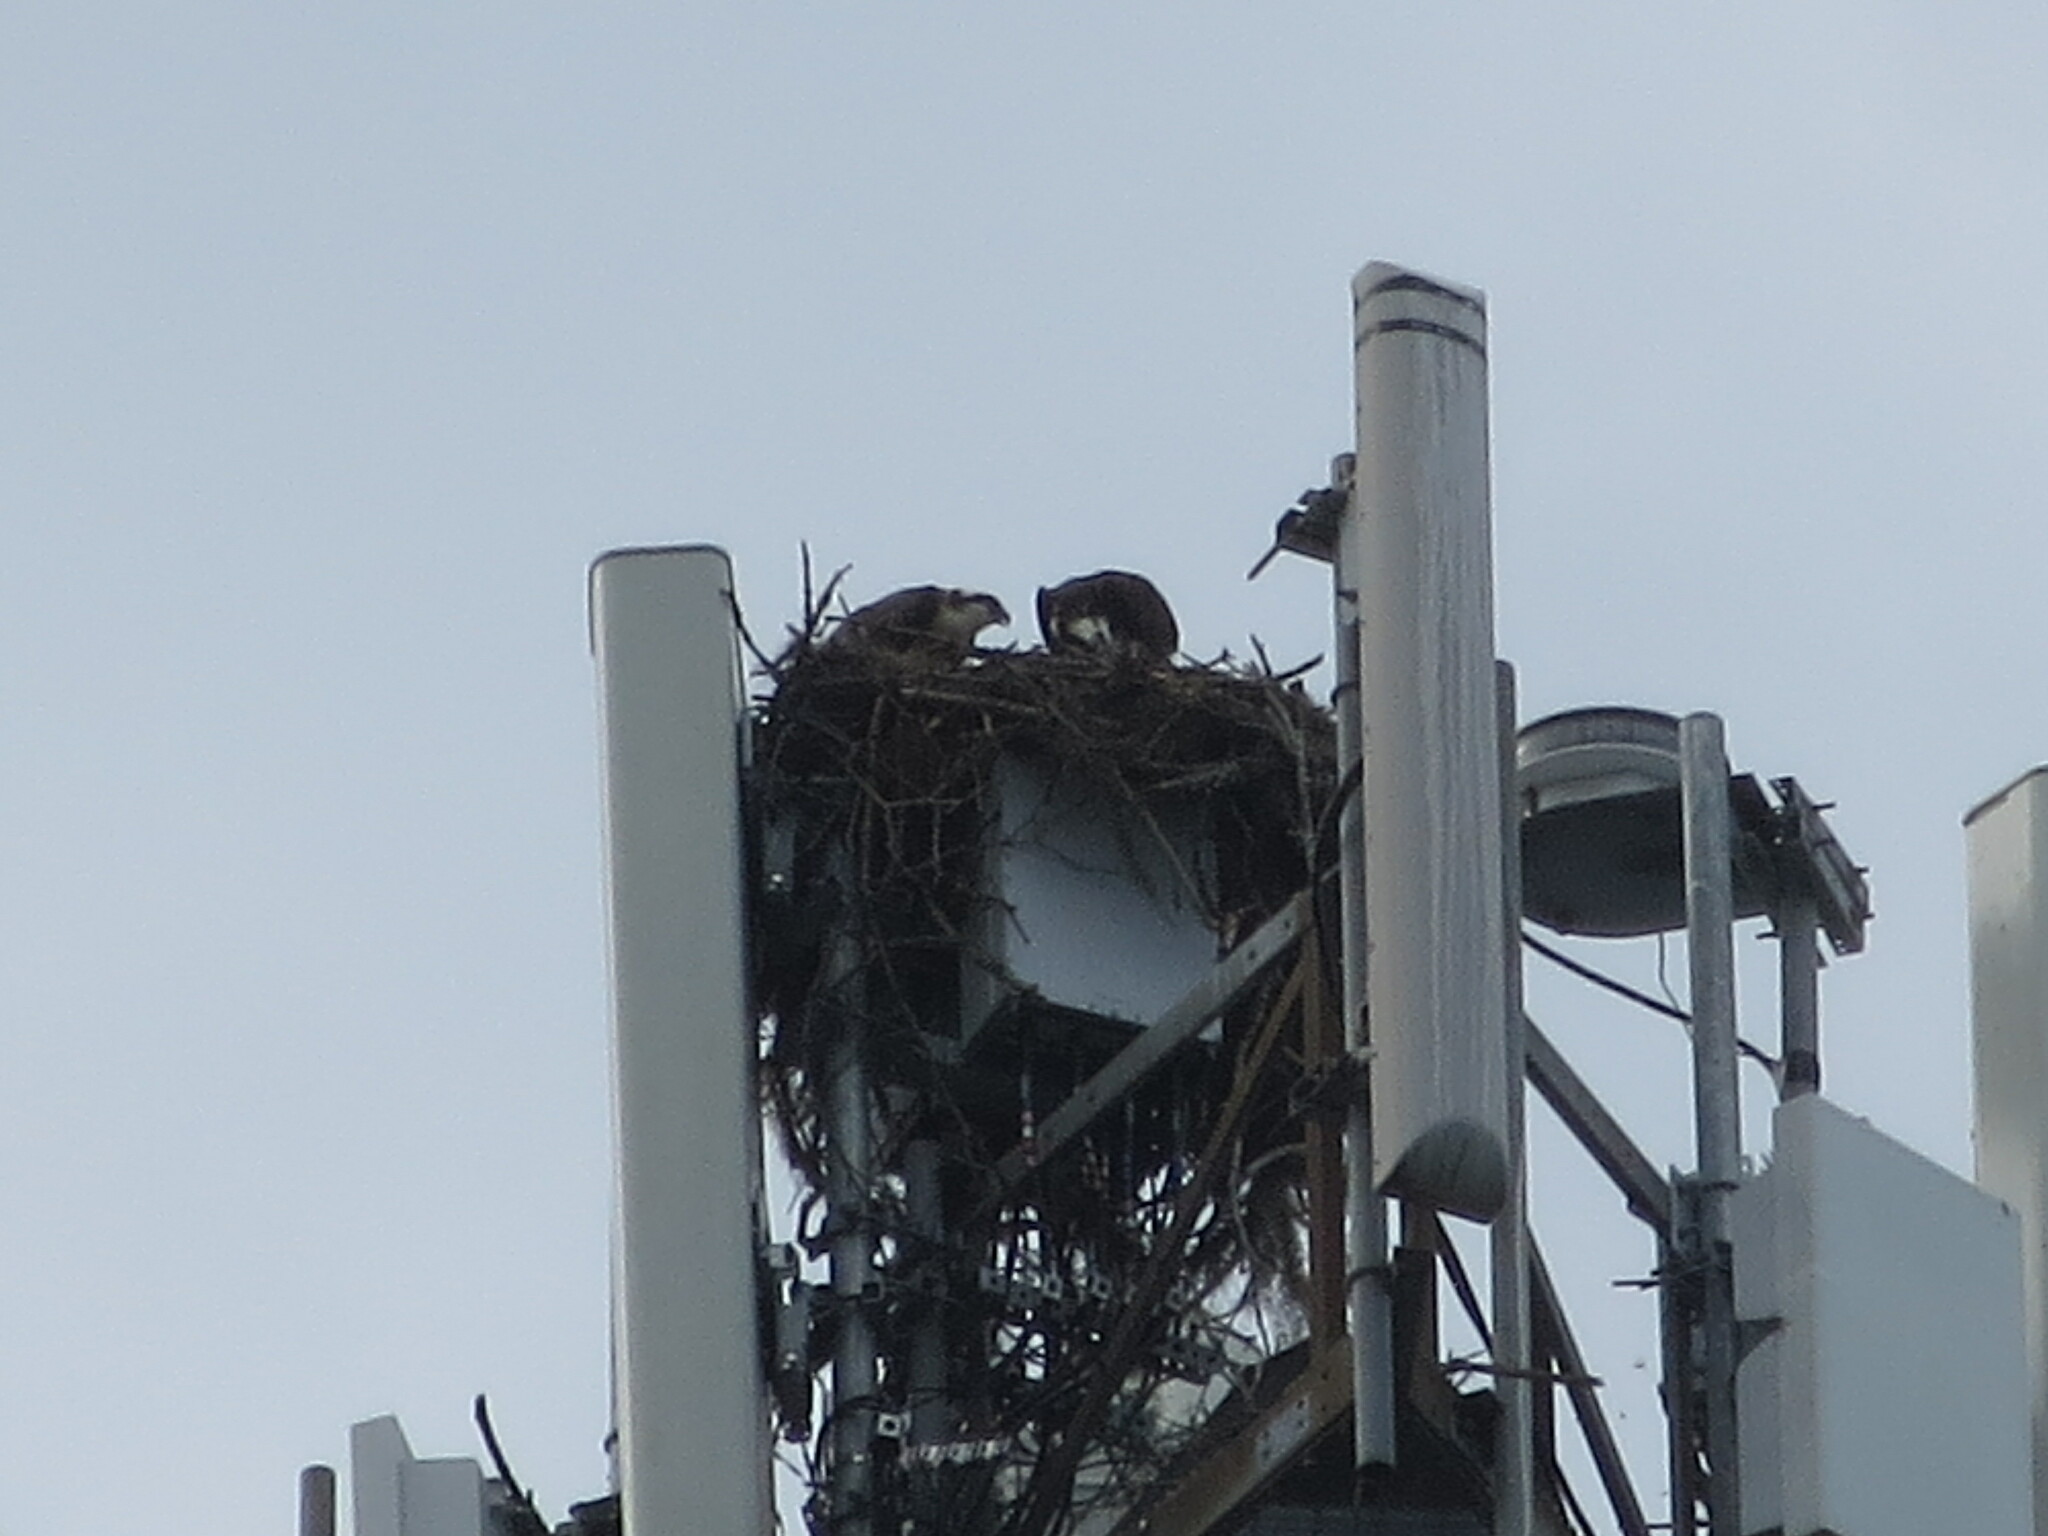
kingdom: Animalia
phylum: Chordata
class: Aves
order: Accipitriformes
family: Pandionidae
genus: Pandion
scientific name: Pandion haliaetus
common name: Osprey
